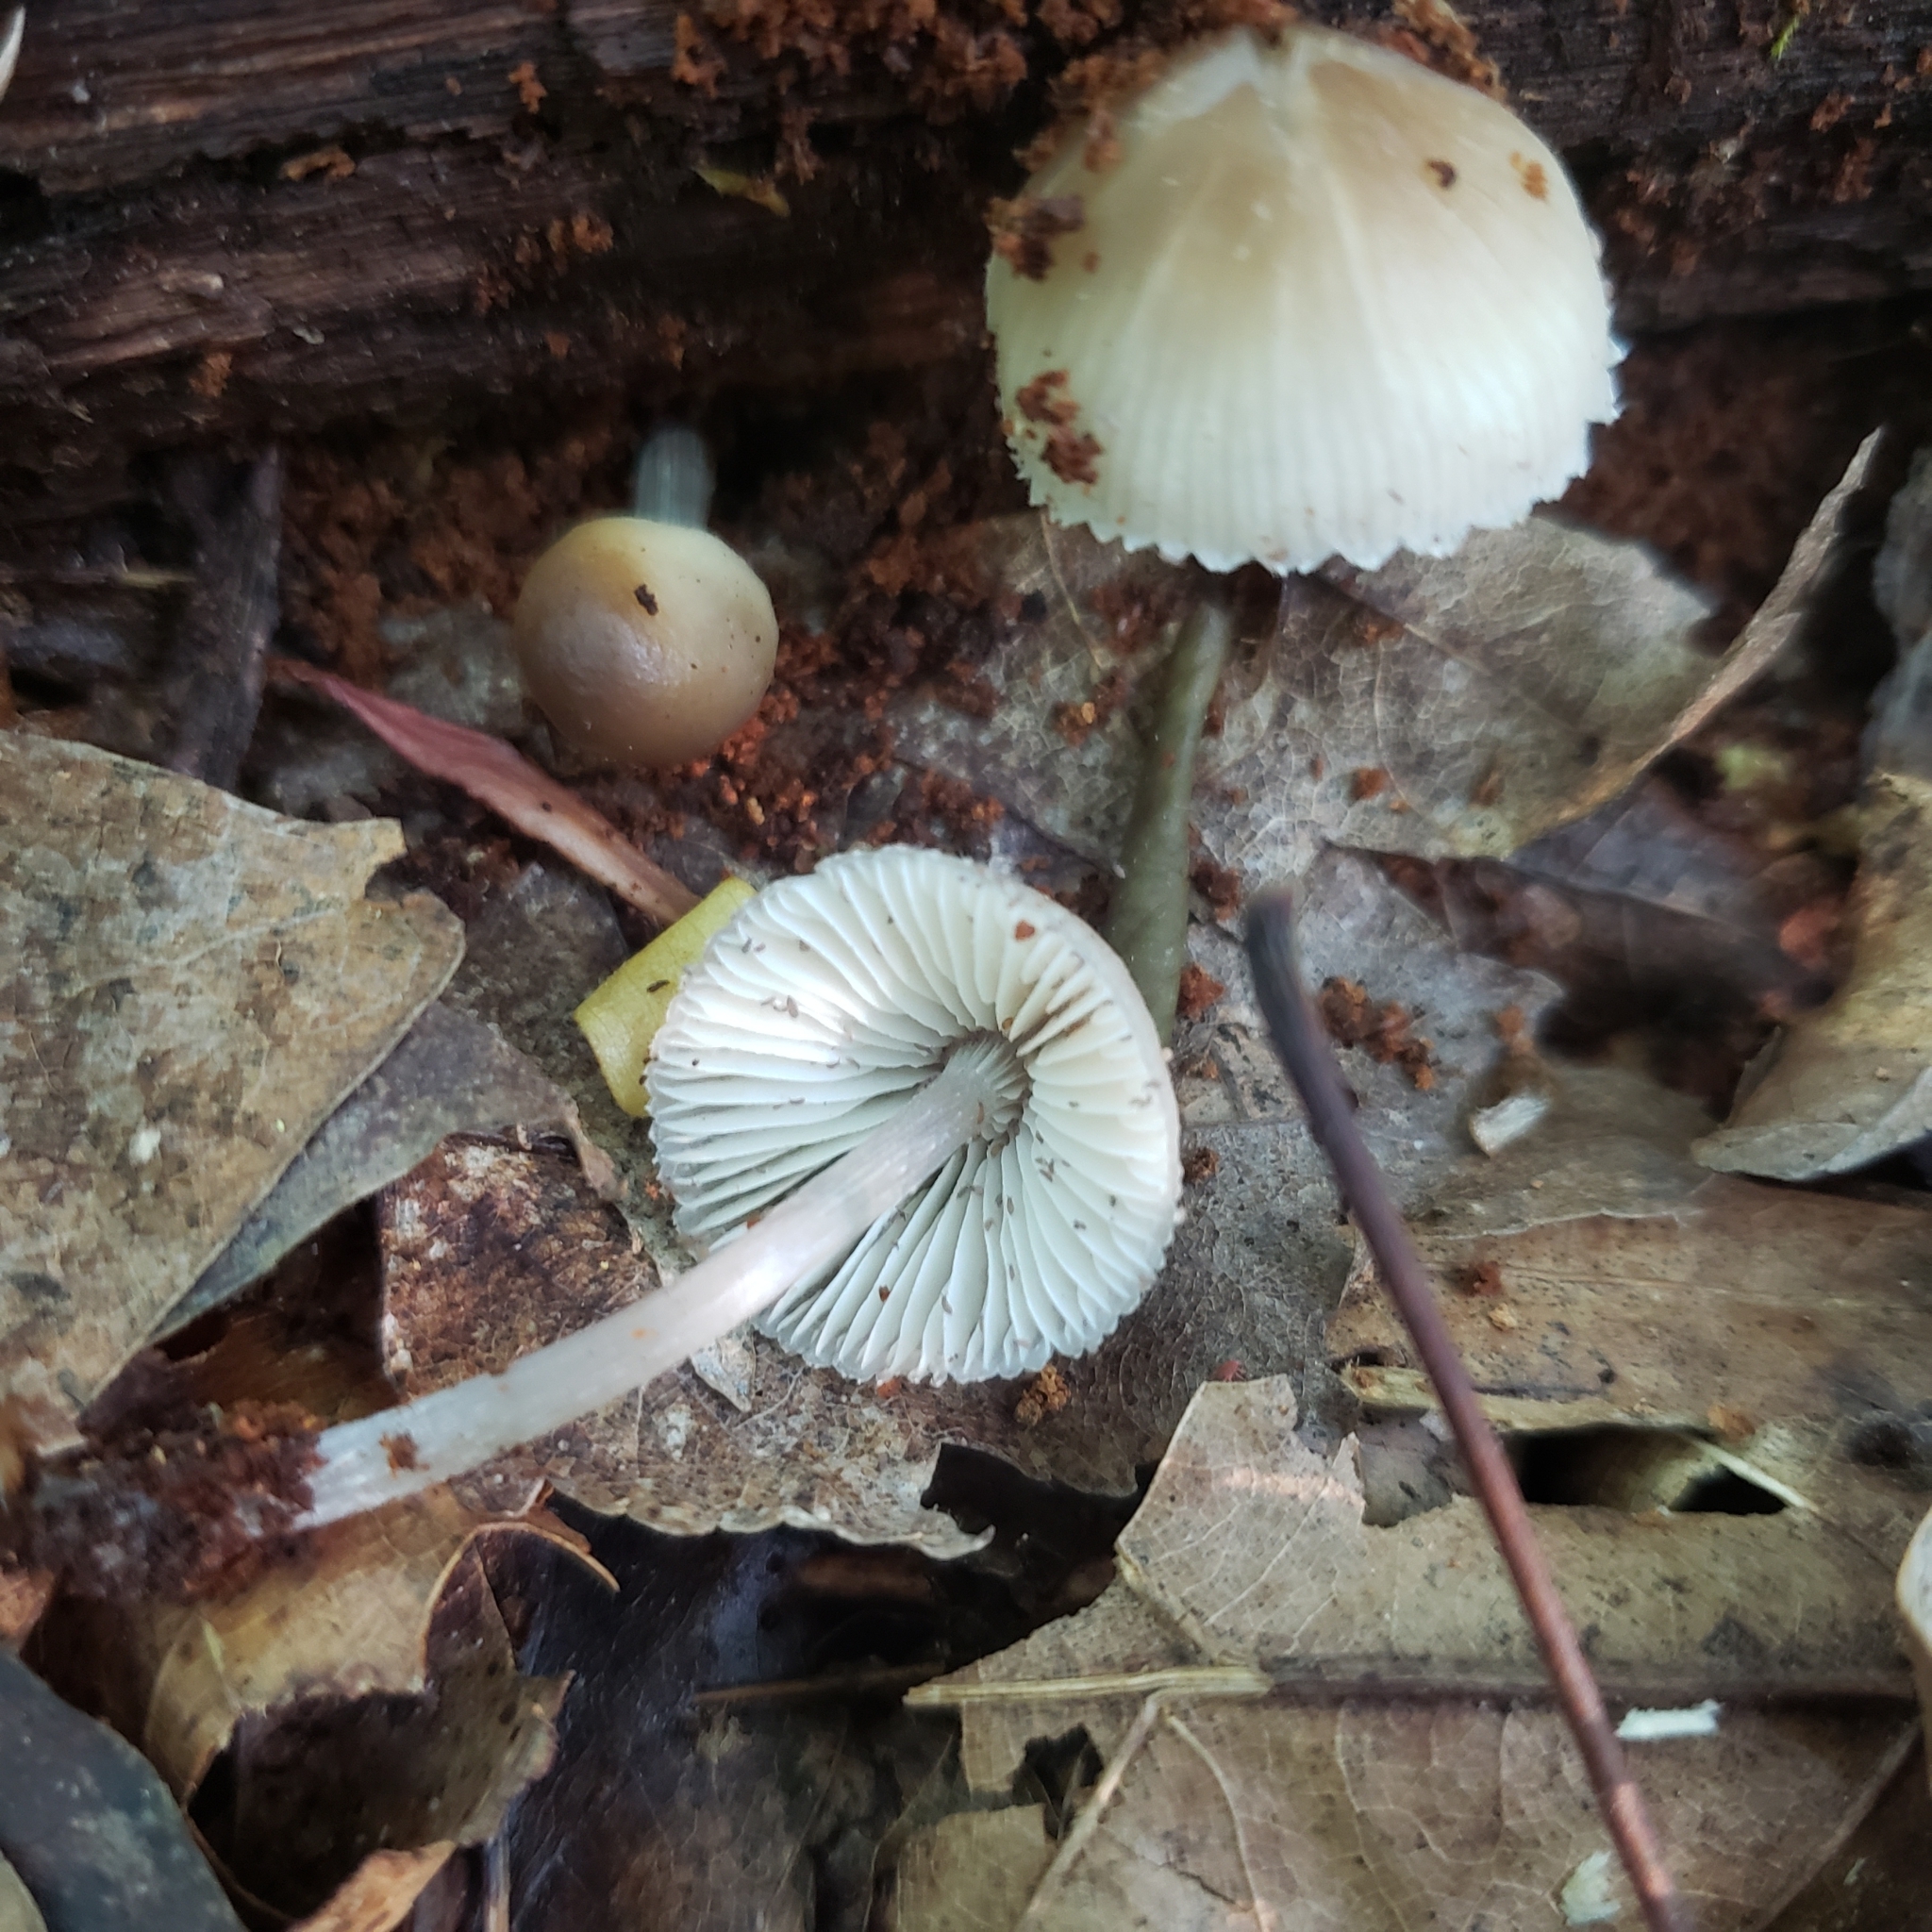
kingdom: Fungi
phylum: Basidiomycota
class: Agaricomycetes
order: Agaricales
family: Mycenaceae
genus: Mycena
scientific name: Mycena inclinata
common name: Clustered bonnet
